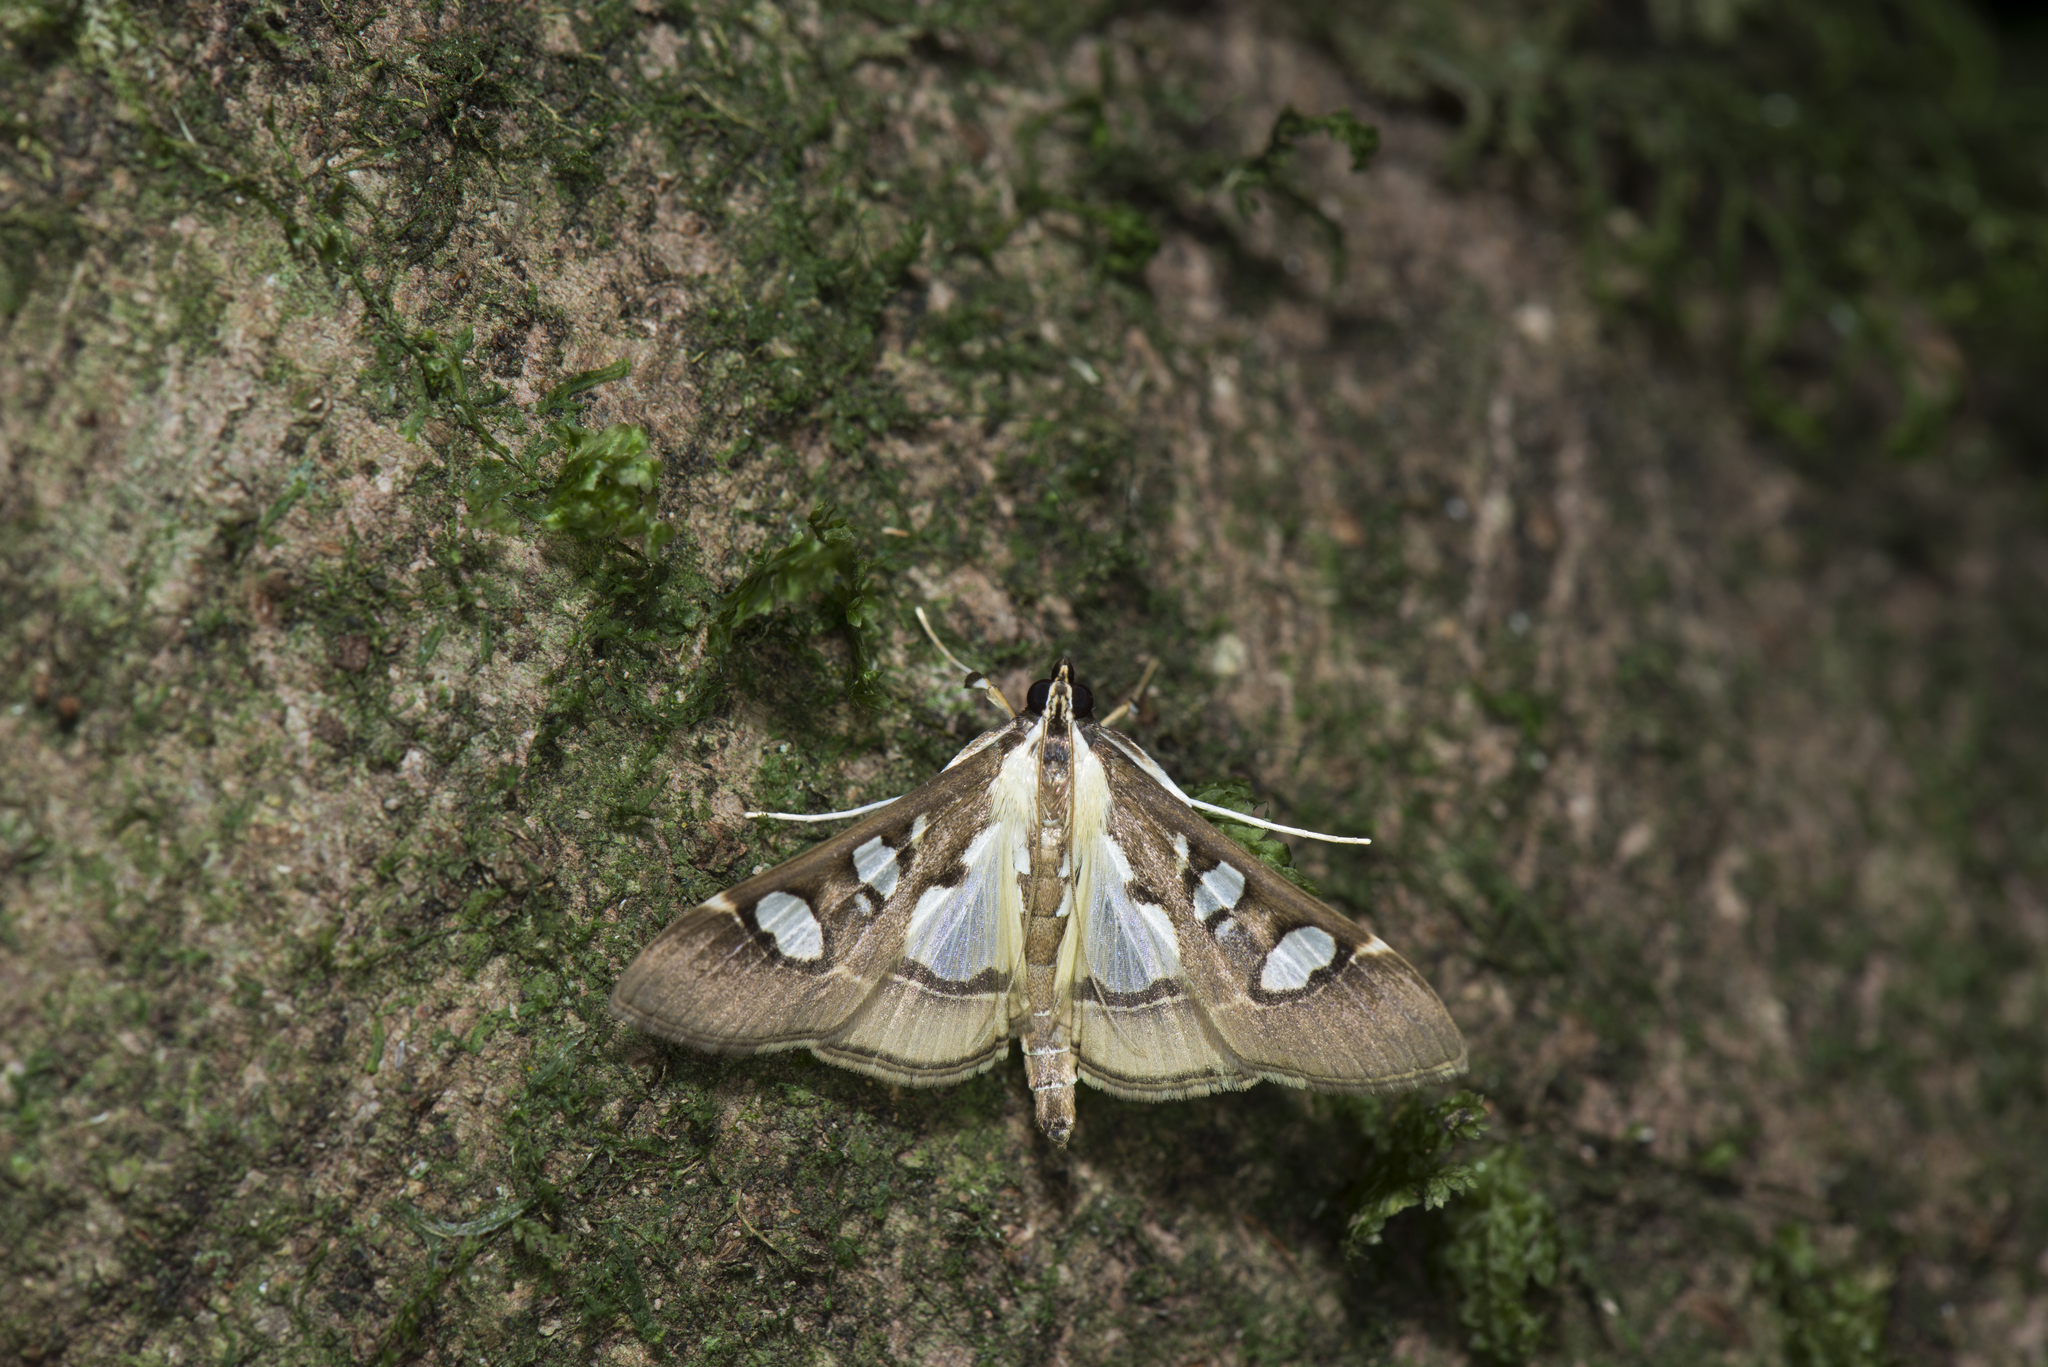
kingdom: Animalia
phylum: Arthropoda
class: Insecta
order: Lepidoptera
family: Crambidae
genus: Glyphodes
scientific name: Glyphodes crithealis
